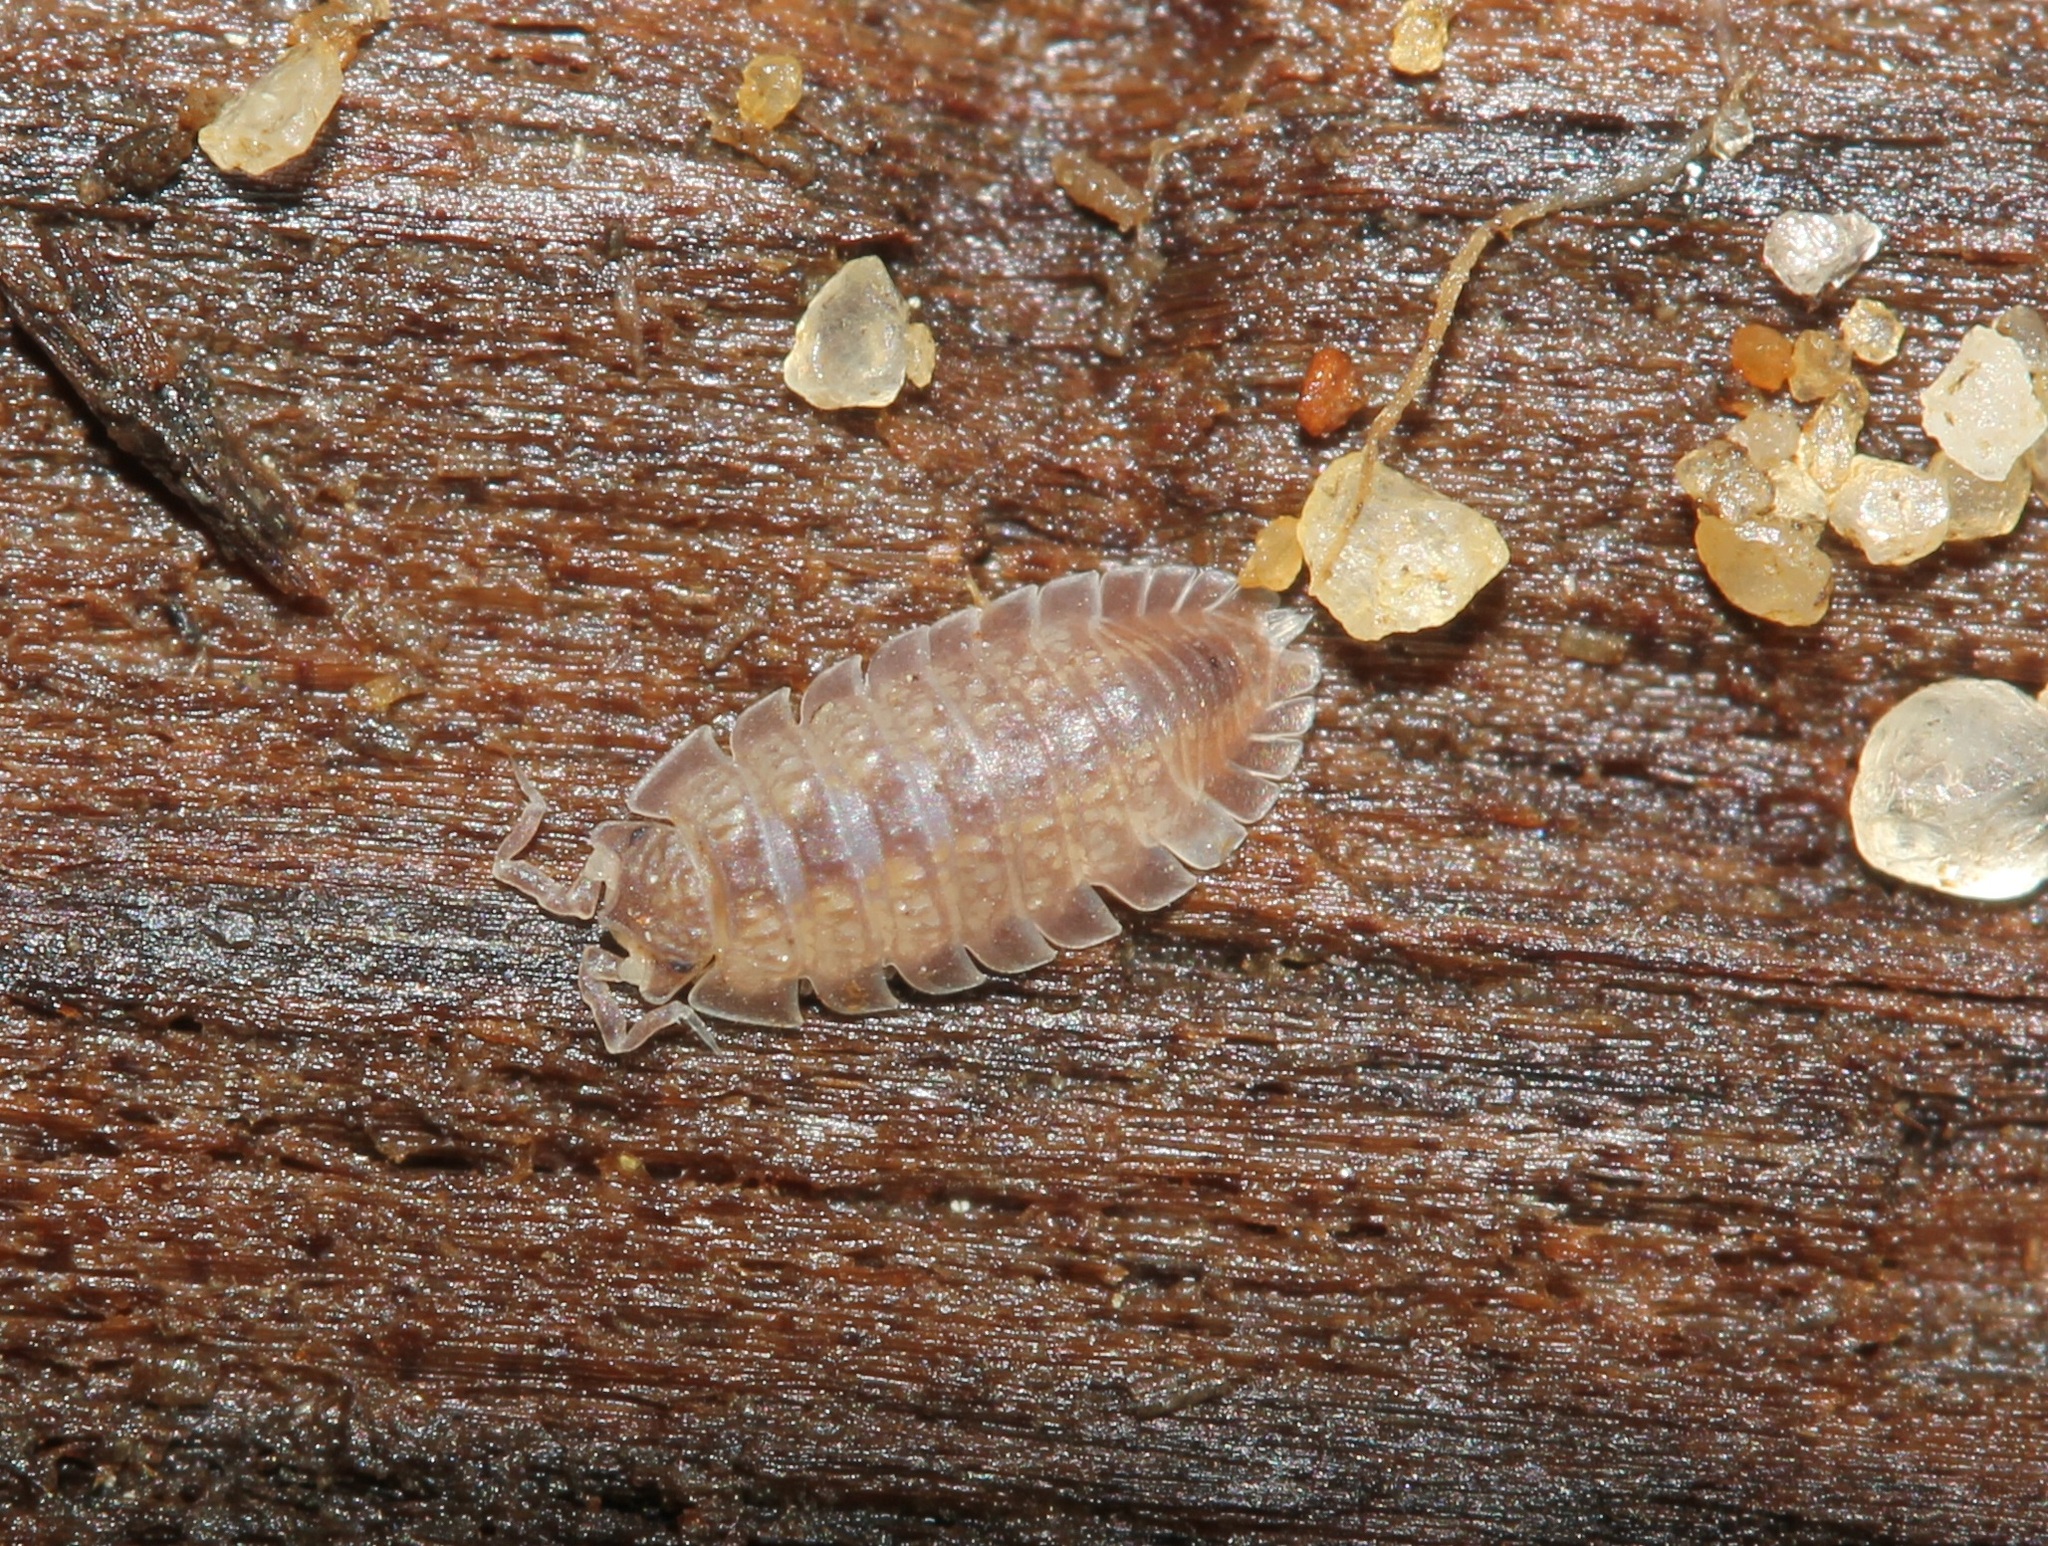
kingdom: Animalia
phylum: Arthropoda
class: Malacostraca
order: Isopoda
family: Detonidae
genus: Armadilloniscus
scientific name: Armadilloniscus ellipticus
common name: Pillbug
